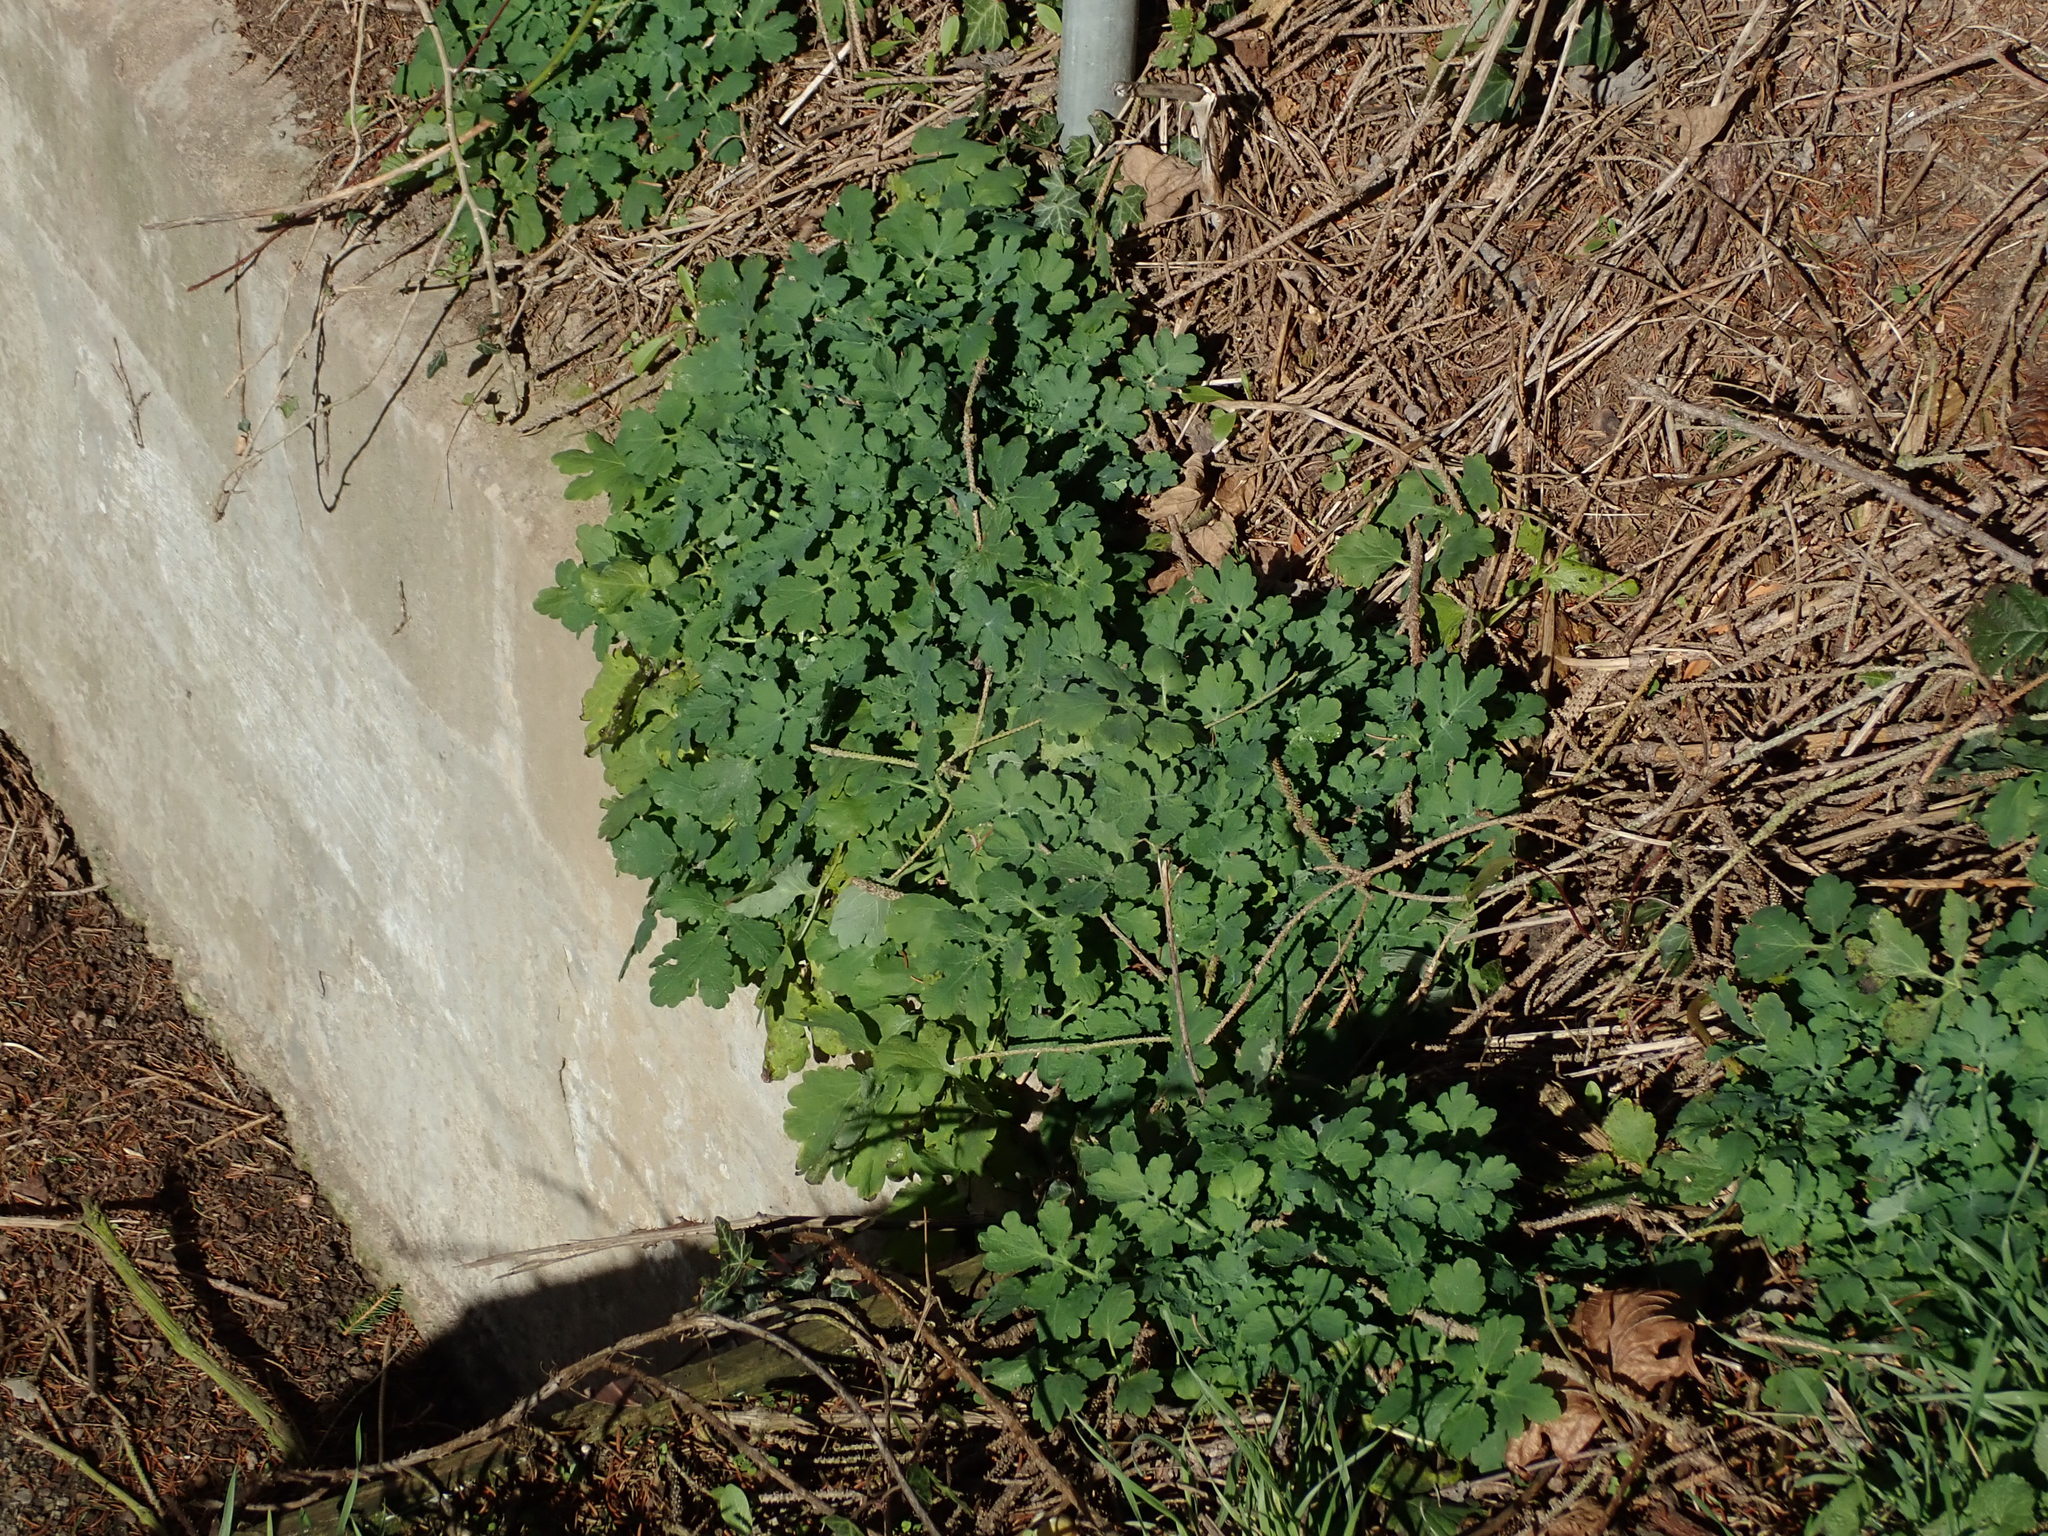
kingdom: Plantae
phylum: Tracheophyta
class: Magnoliopsida
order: Ranunculales
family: Papaveraceae
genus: Chelidonium
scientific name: Chelidonium majus
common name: Greater celandine
